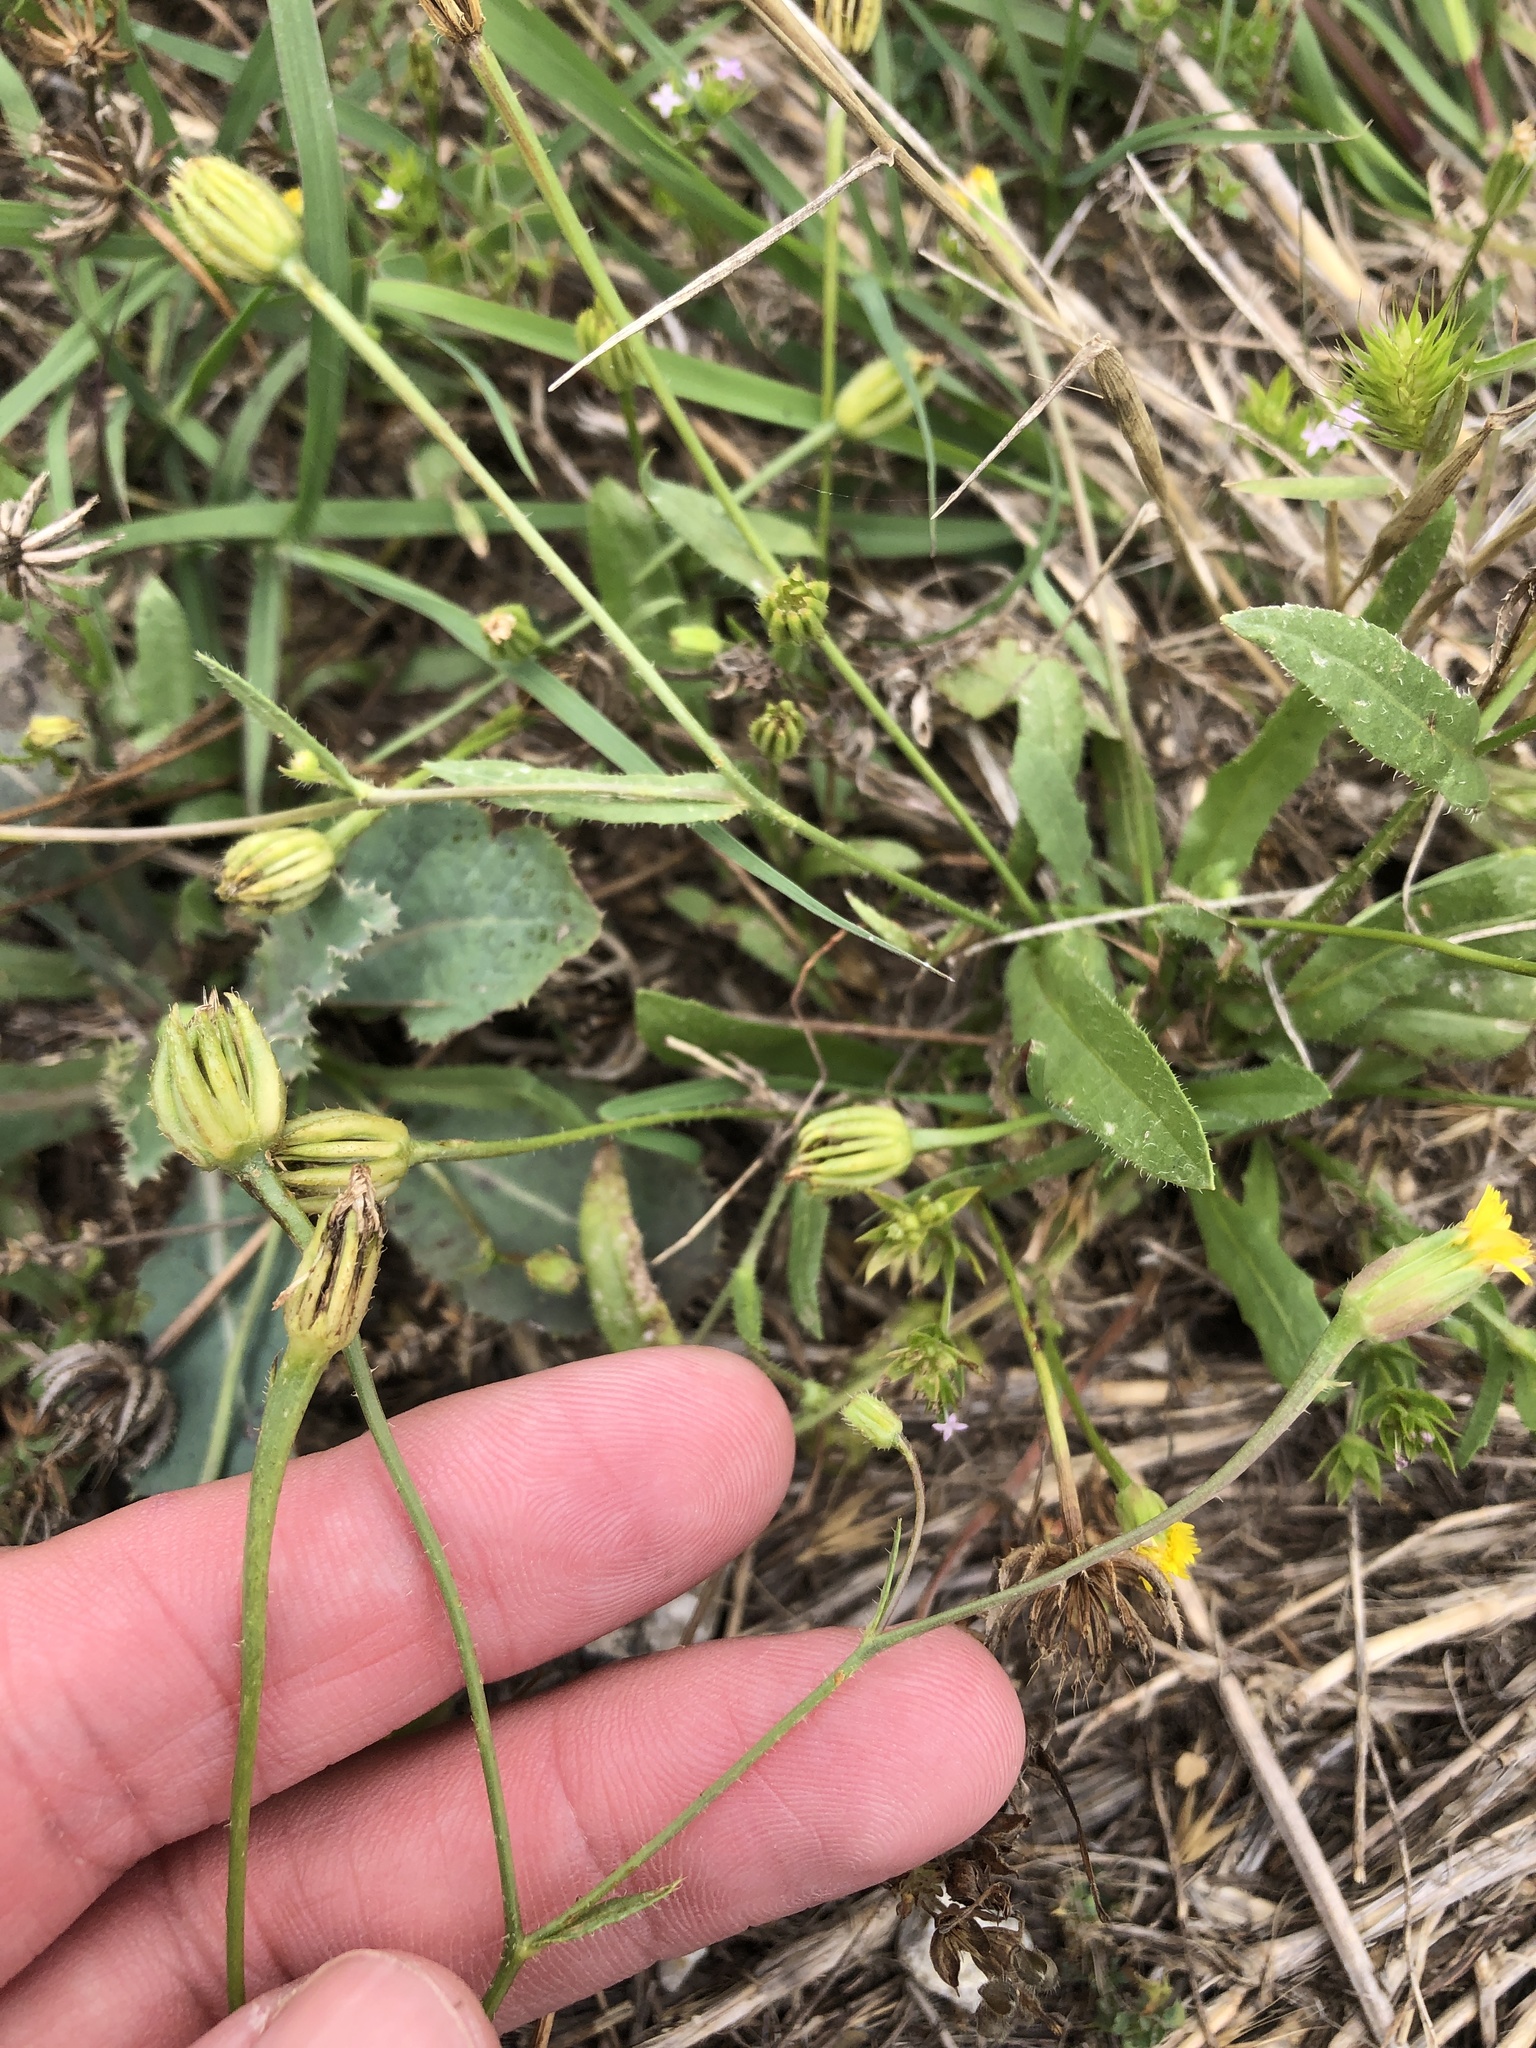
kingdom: Plantae
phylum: Tracheophyta
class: Magnoliopsida
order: Asterales
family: Asteraceae
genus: Hedypnois
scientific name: Hedypnois rhagadioloides
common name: Cretan weed
